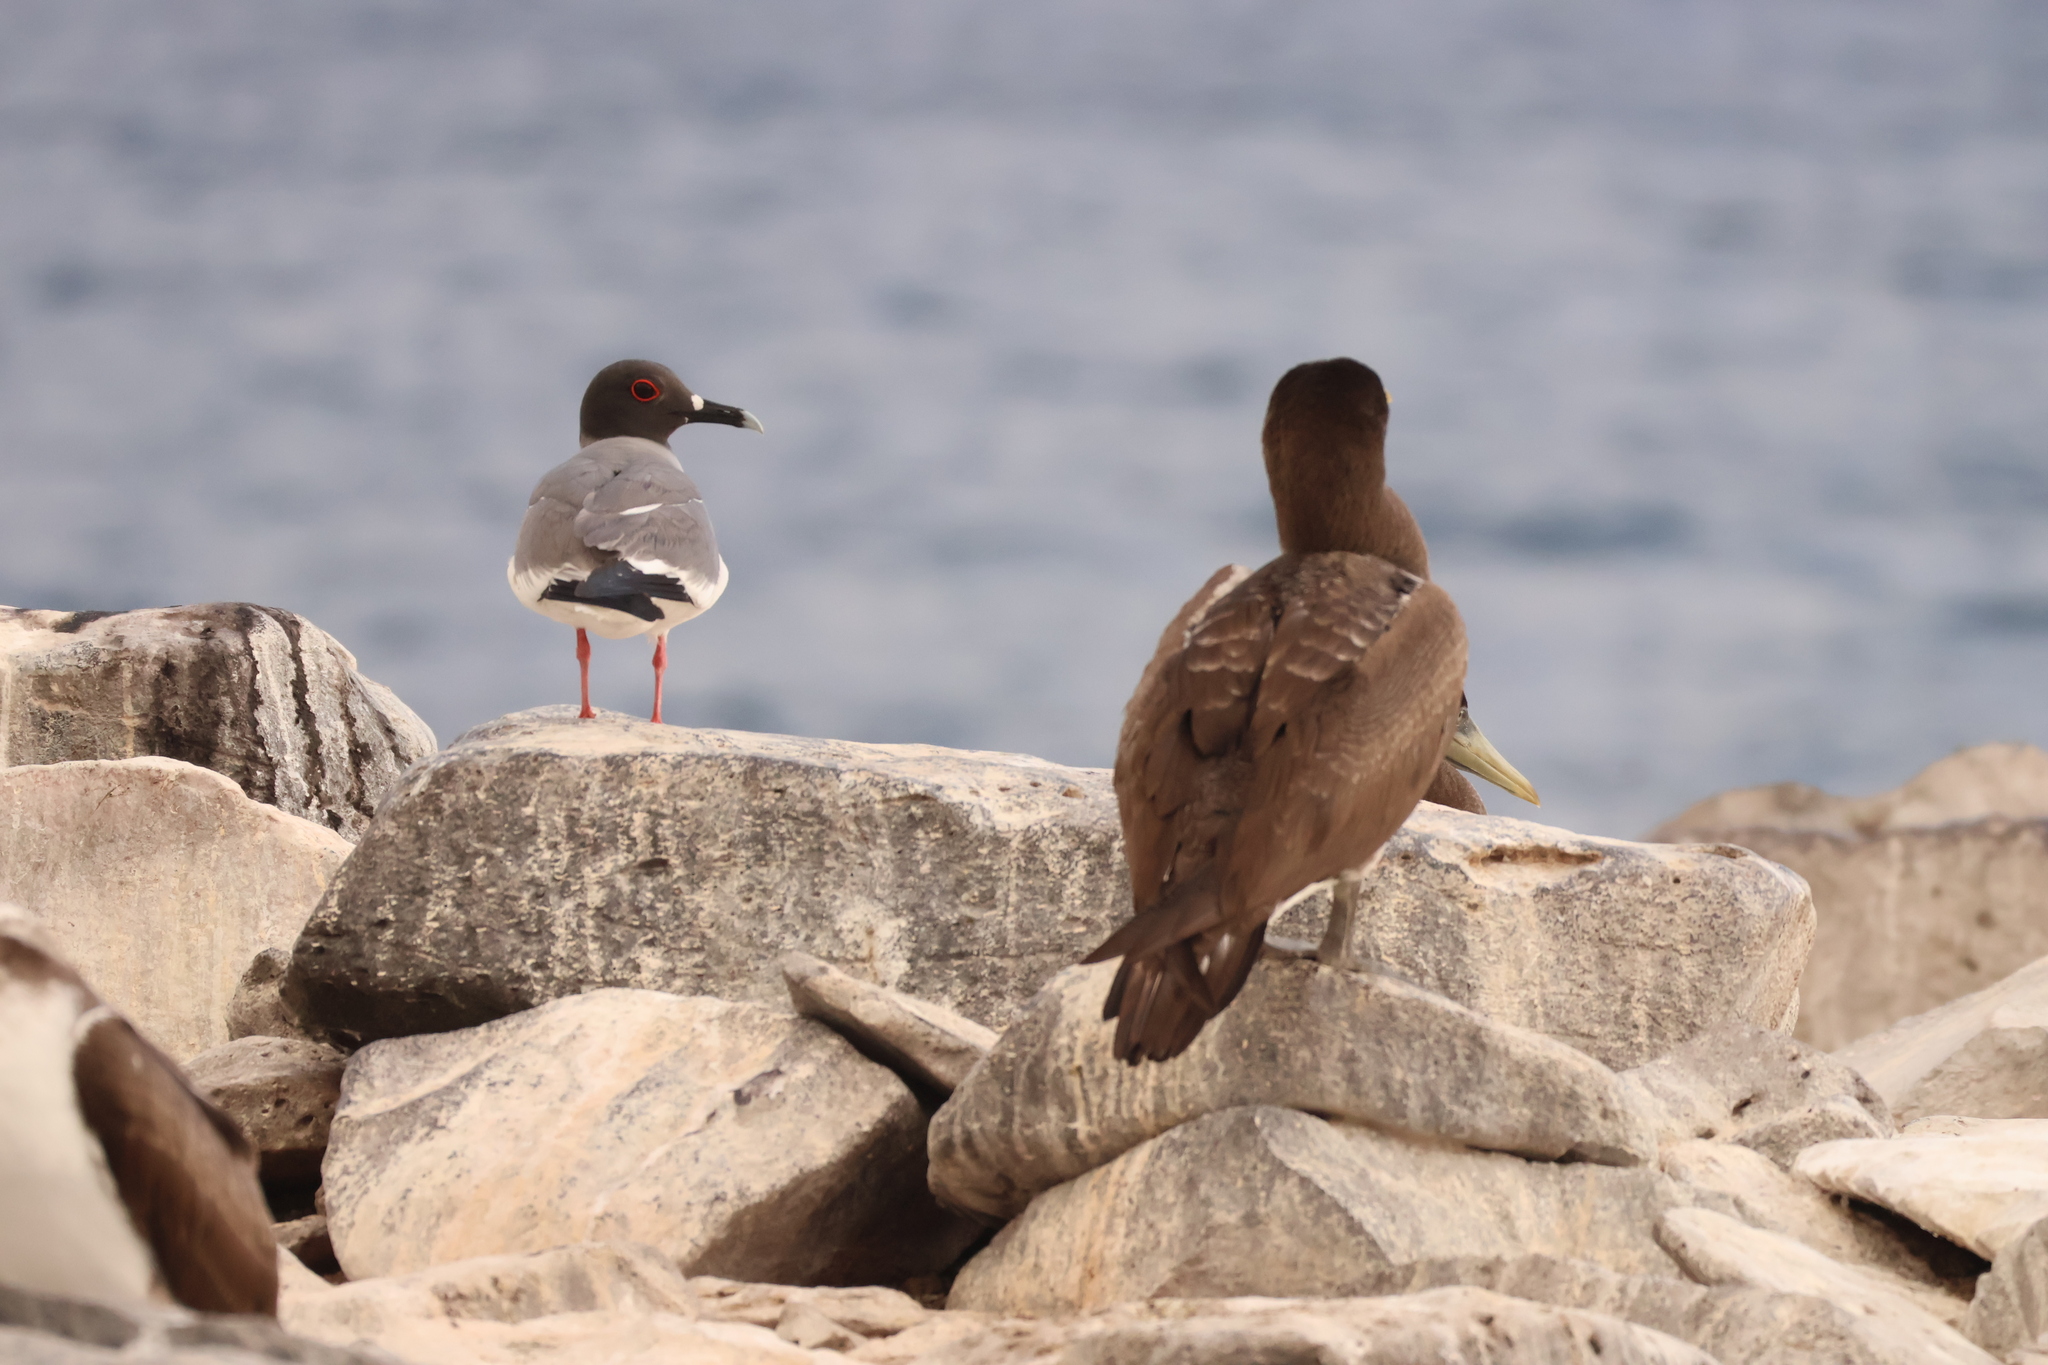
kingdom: Animalia
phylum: Chordata
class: Aves
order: Charadriiformes
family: Laridae
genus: Creagrus
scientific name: Creagrus furcatus
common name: Swallow-tailed gull
